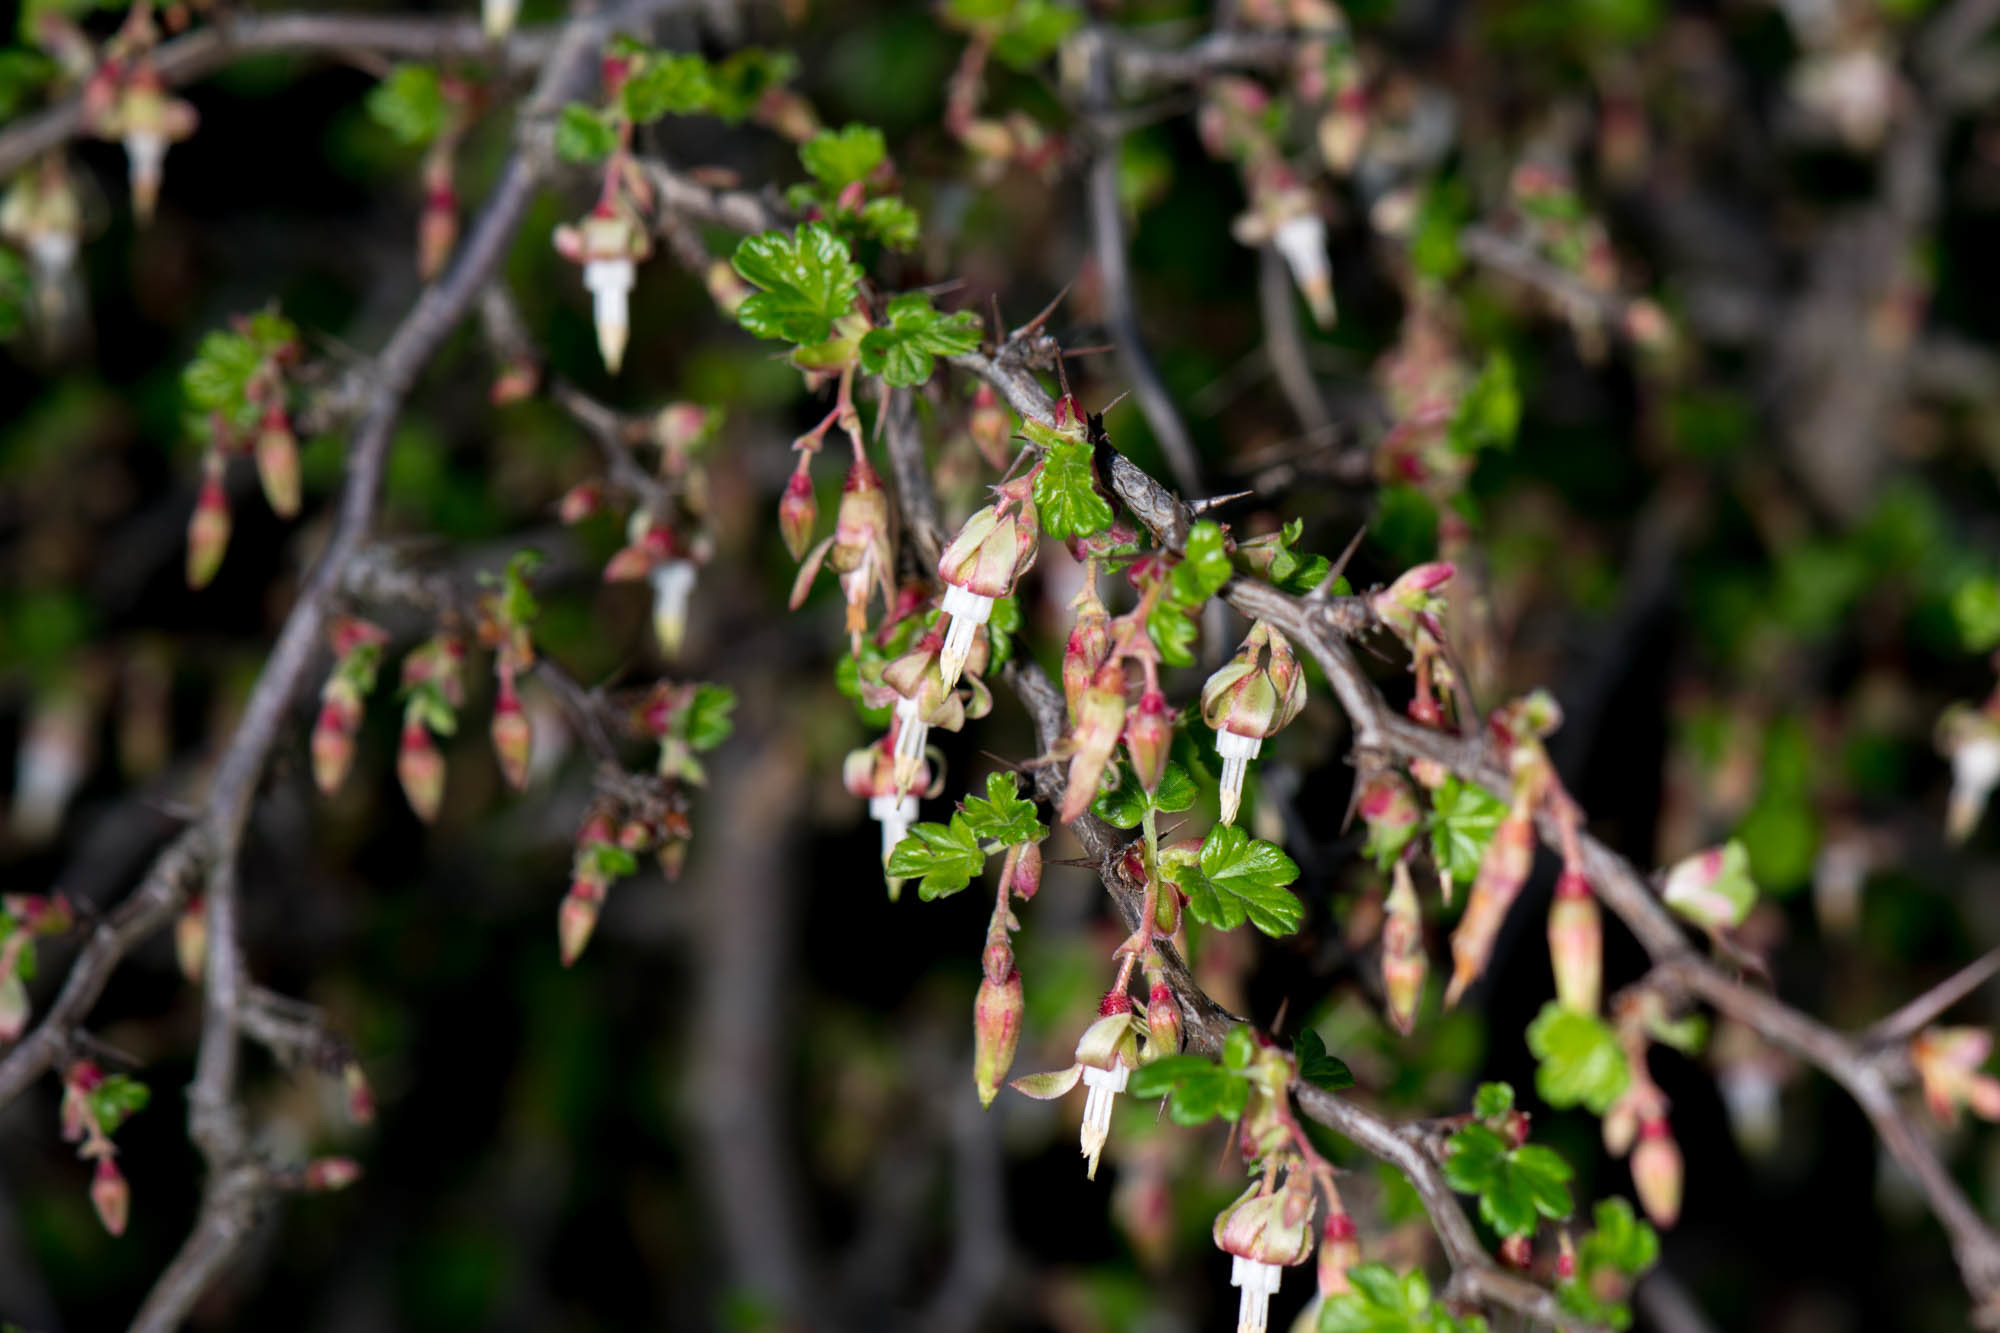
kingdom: Plantae
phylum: Tracheophyta
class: Magnoliopsida
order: Saxifragales
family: Grossulariaceae
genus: Ribes
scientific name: Ribes californicum
